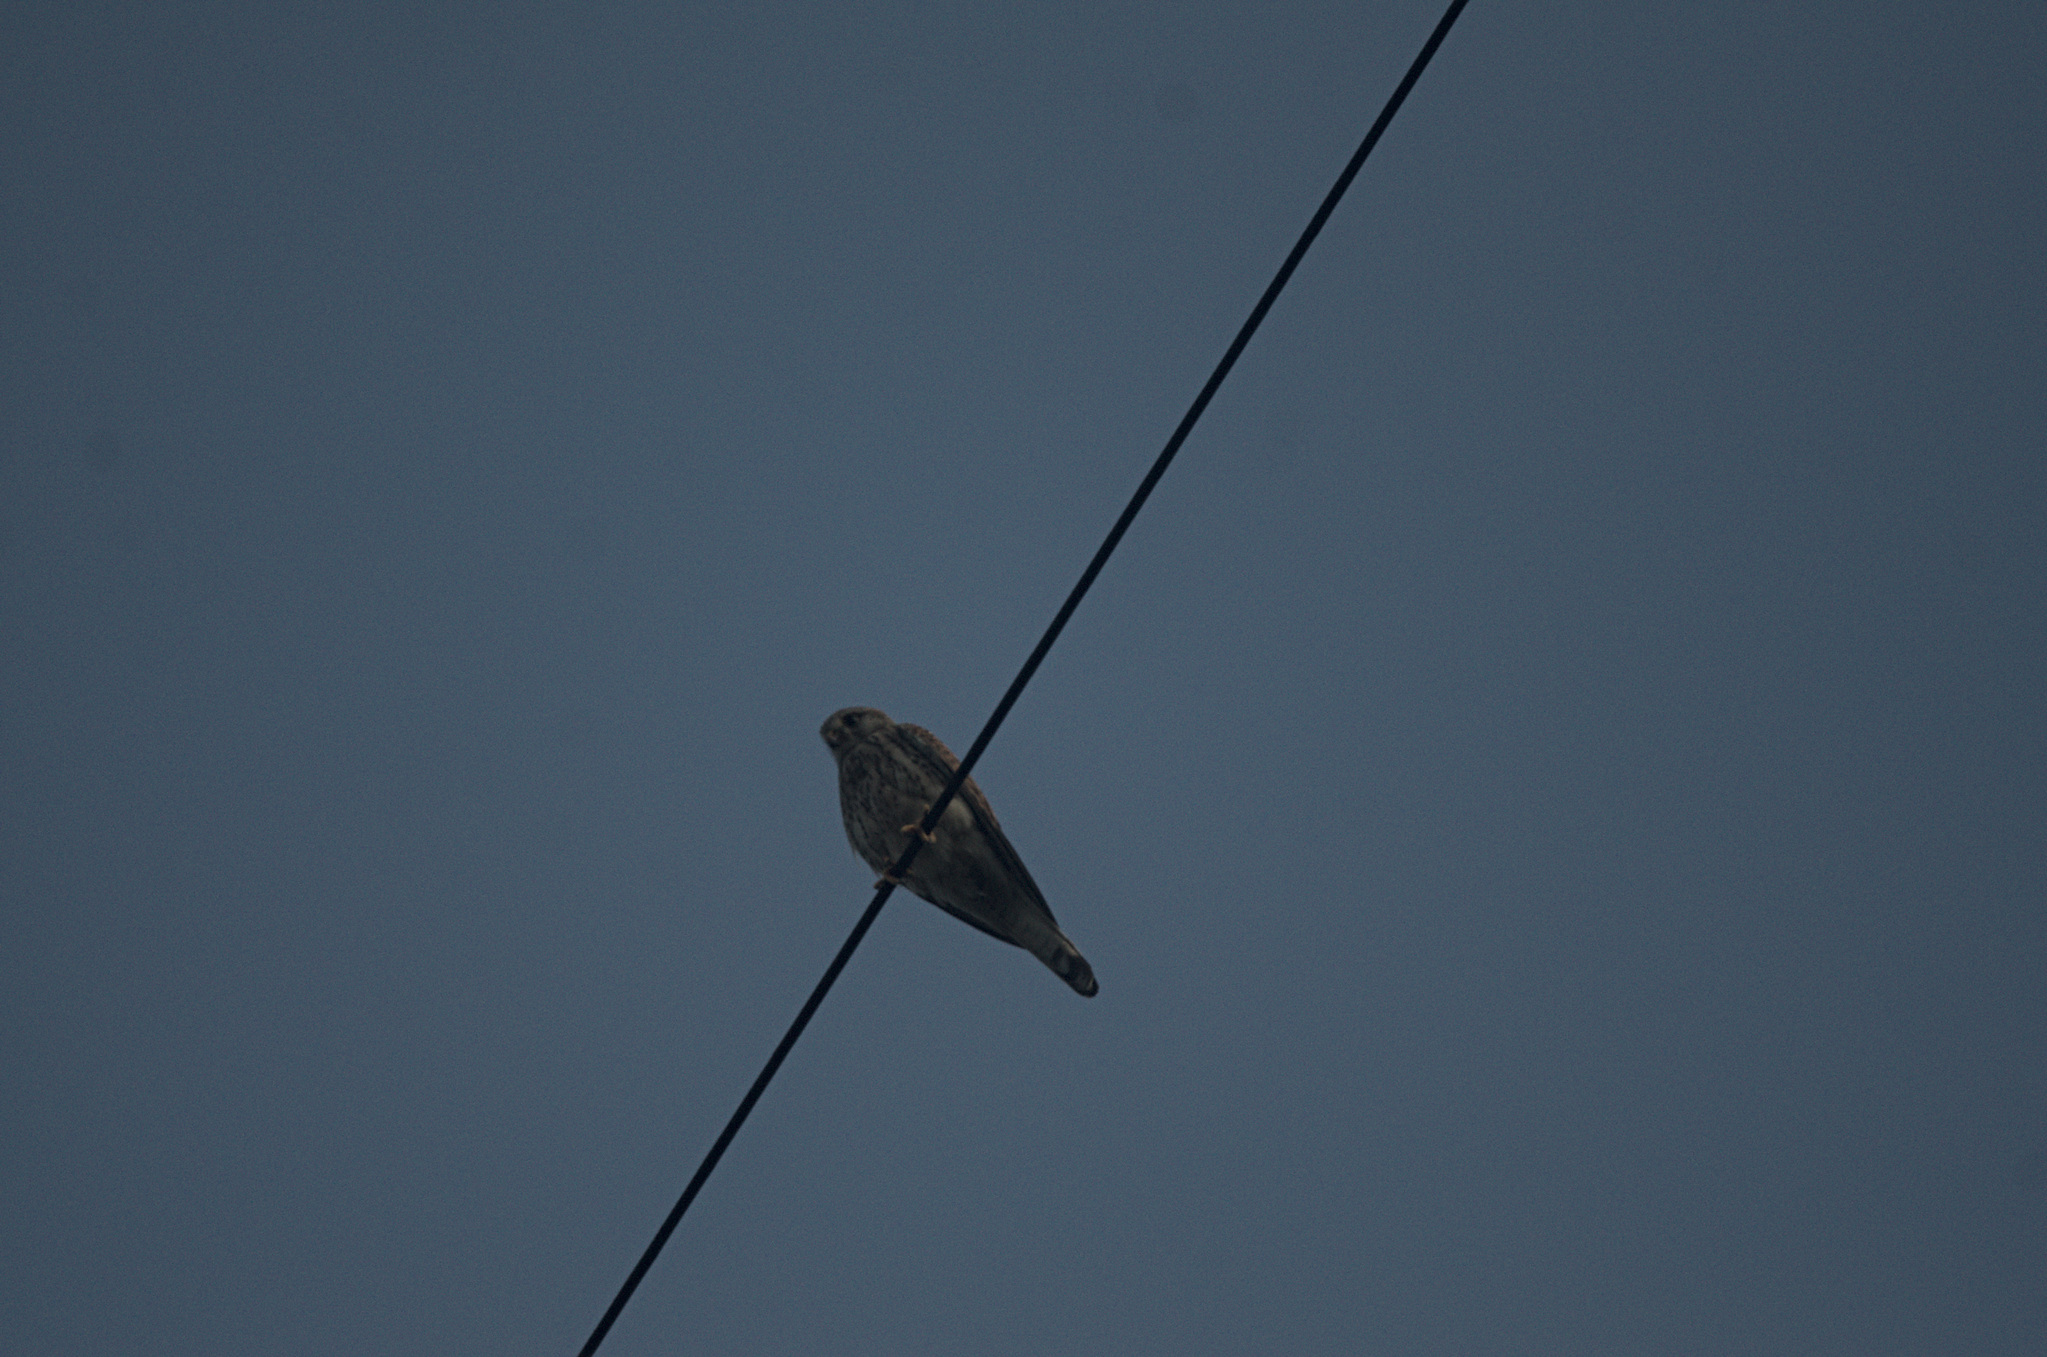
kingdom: Animalia
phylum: Chordata
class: Aves
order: Falconiformes
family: Falconidae
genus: Falco
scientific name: Falco tinnunculus
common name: Common kestrel
